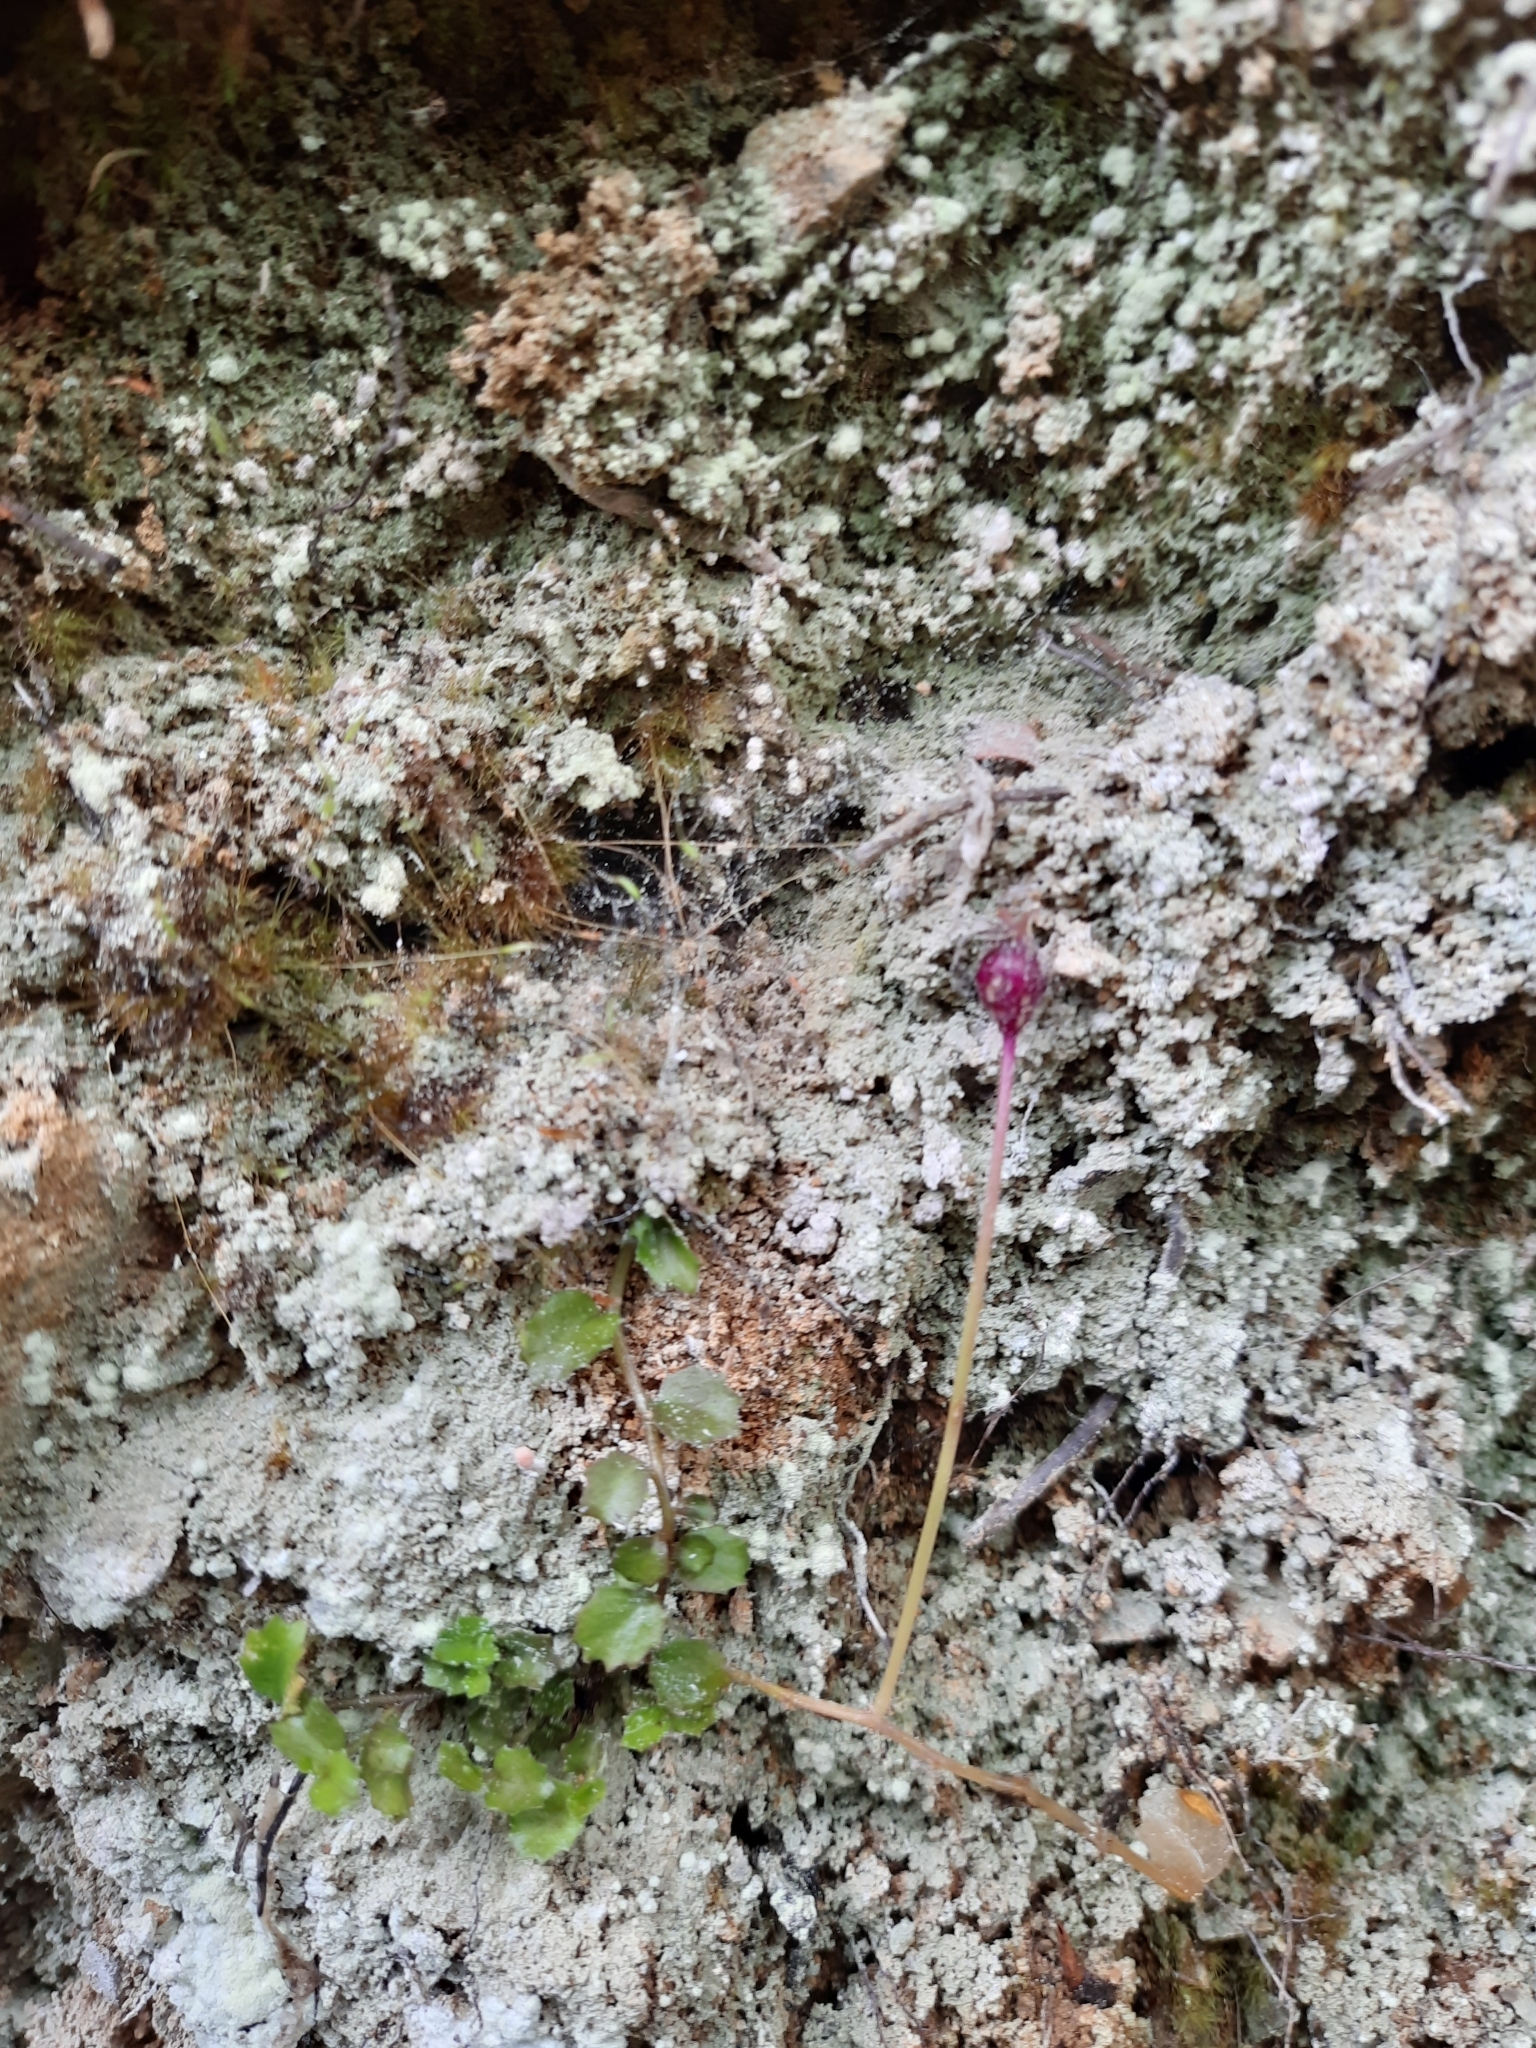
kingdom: Plantae
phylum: Tracheophyta
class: Magnoliopsida
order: Asterales
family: Campanulaceae
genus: Lobelia
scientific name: Lobelia angulata
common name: Lawn lobelia
